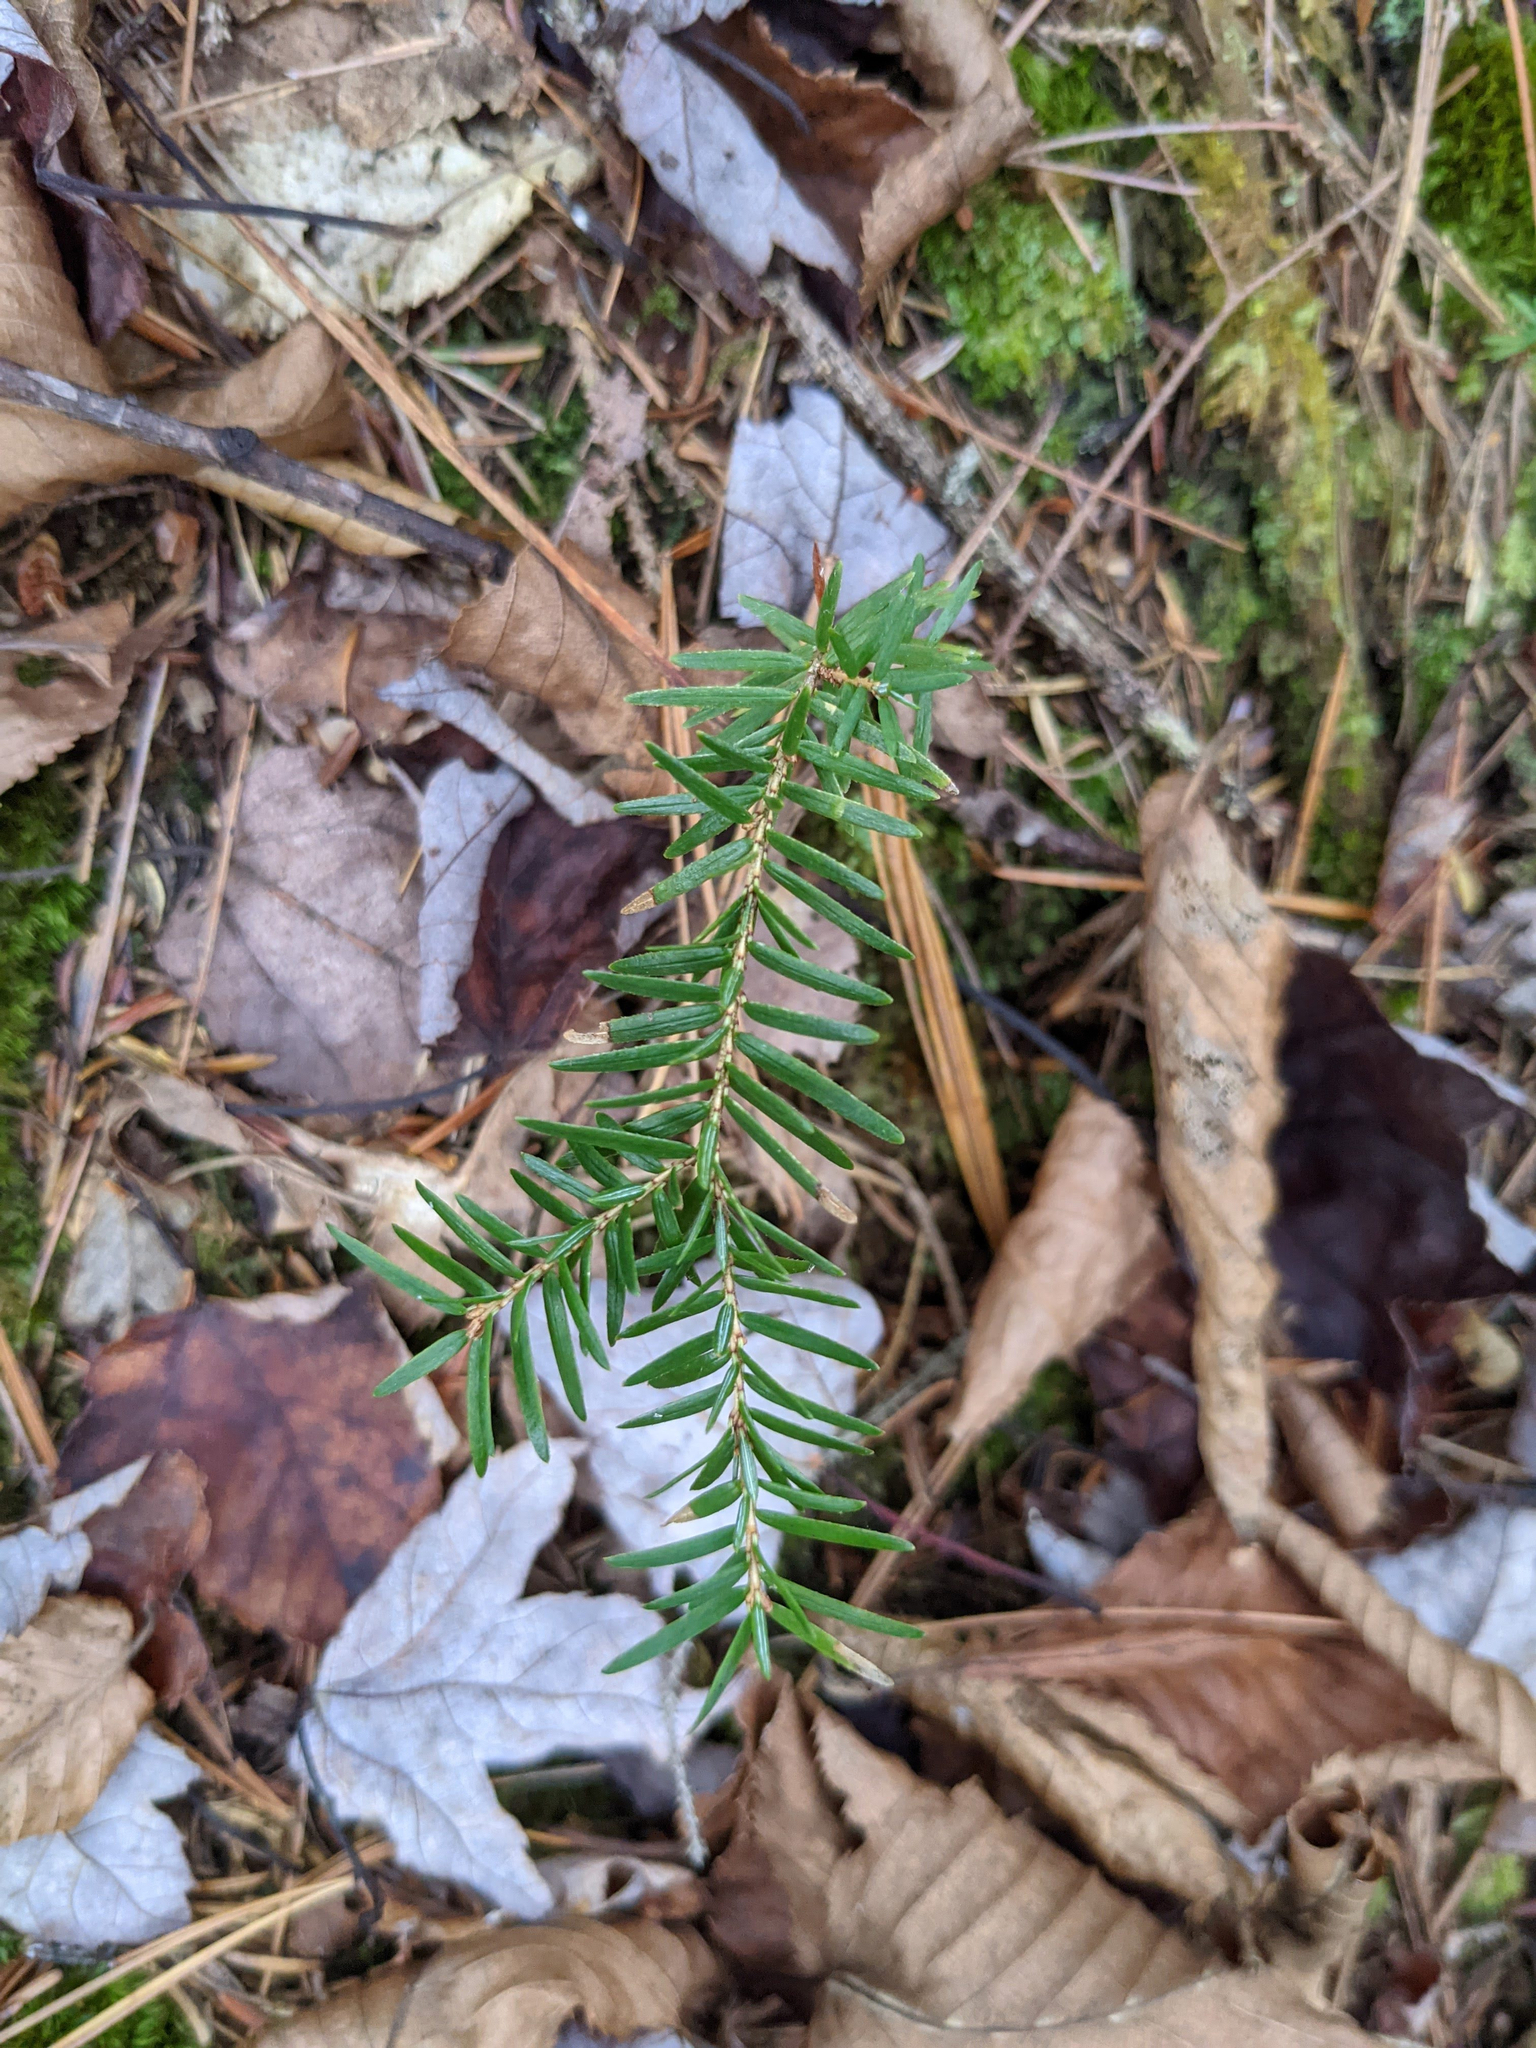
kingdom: Plantae
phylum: Tracheophyta
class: Pinopsida
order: Pinales
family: Pinaceae
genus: Tsuga
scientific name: Tsuga canadensis
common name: Eastern hemlock
